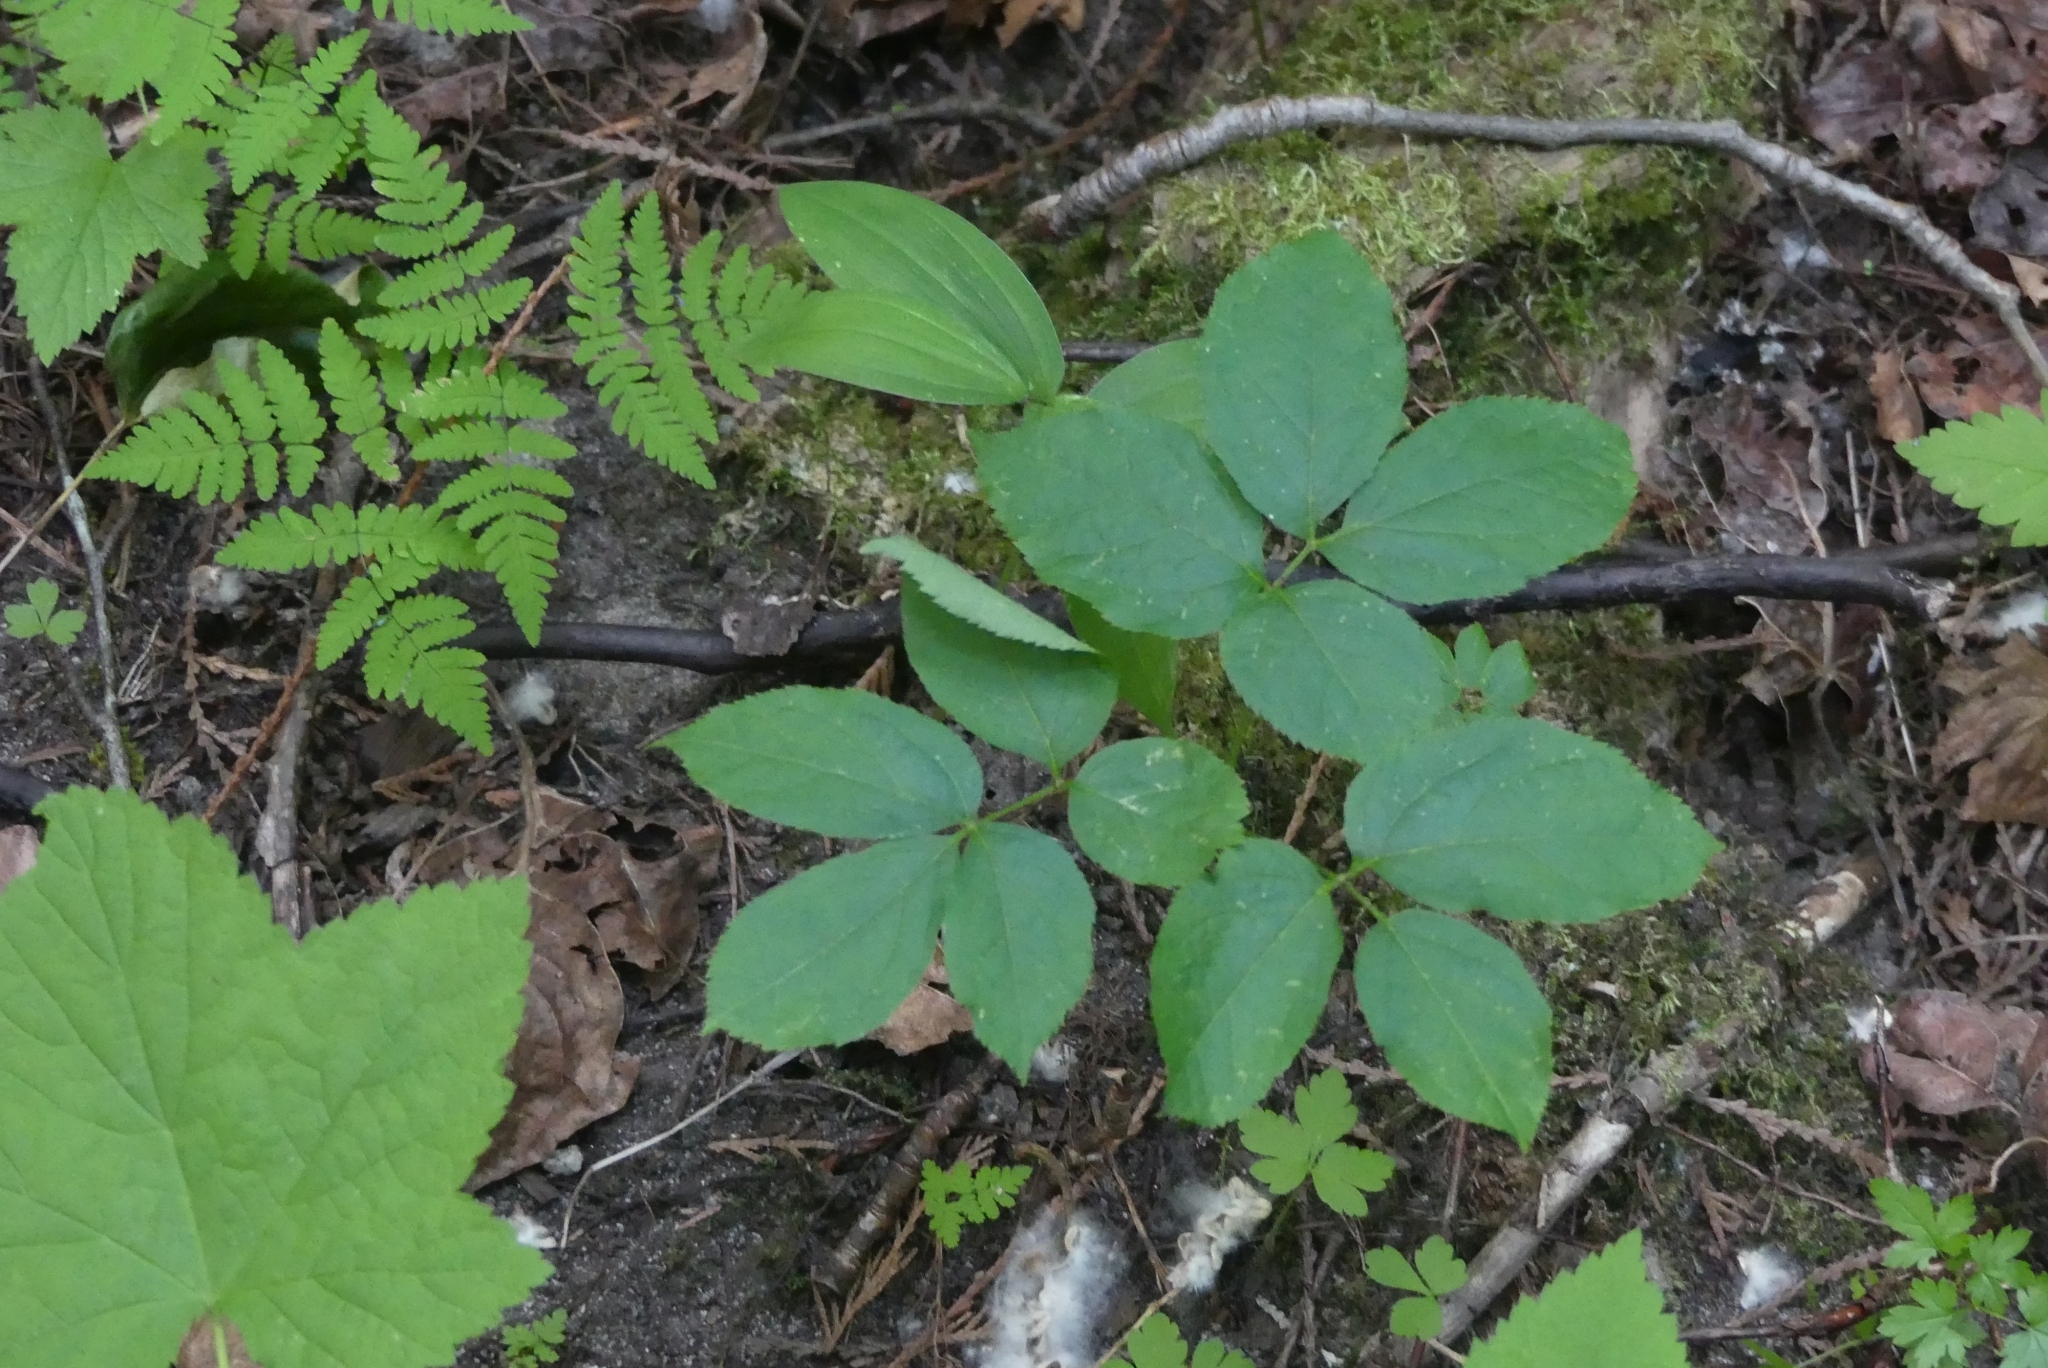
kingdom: Plantae
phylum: Tracheophyta
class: Magnoliopsida
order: Apiales
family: Araliaceae
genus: Aralia
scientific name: Aralia nudicaulis
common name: Wild sarsaparilla
